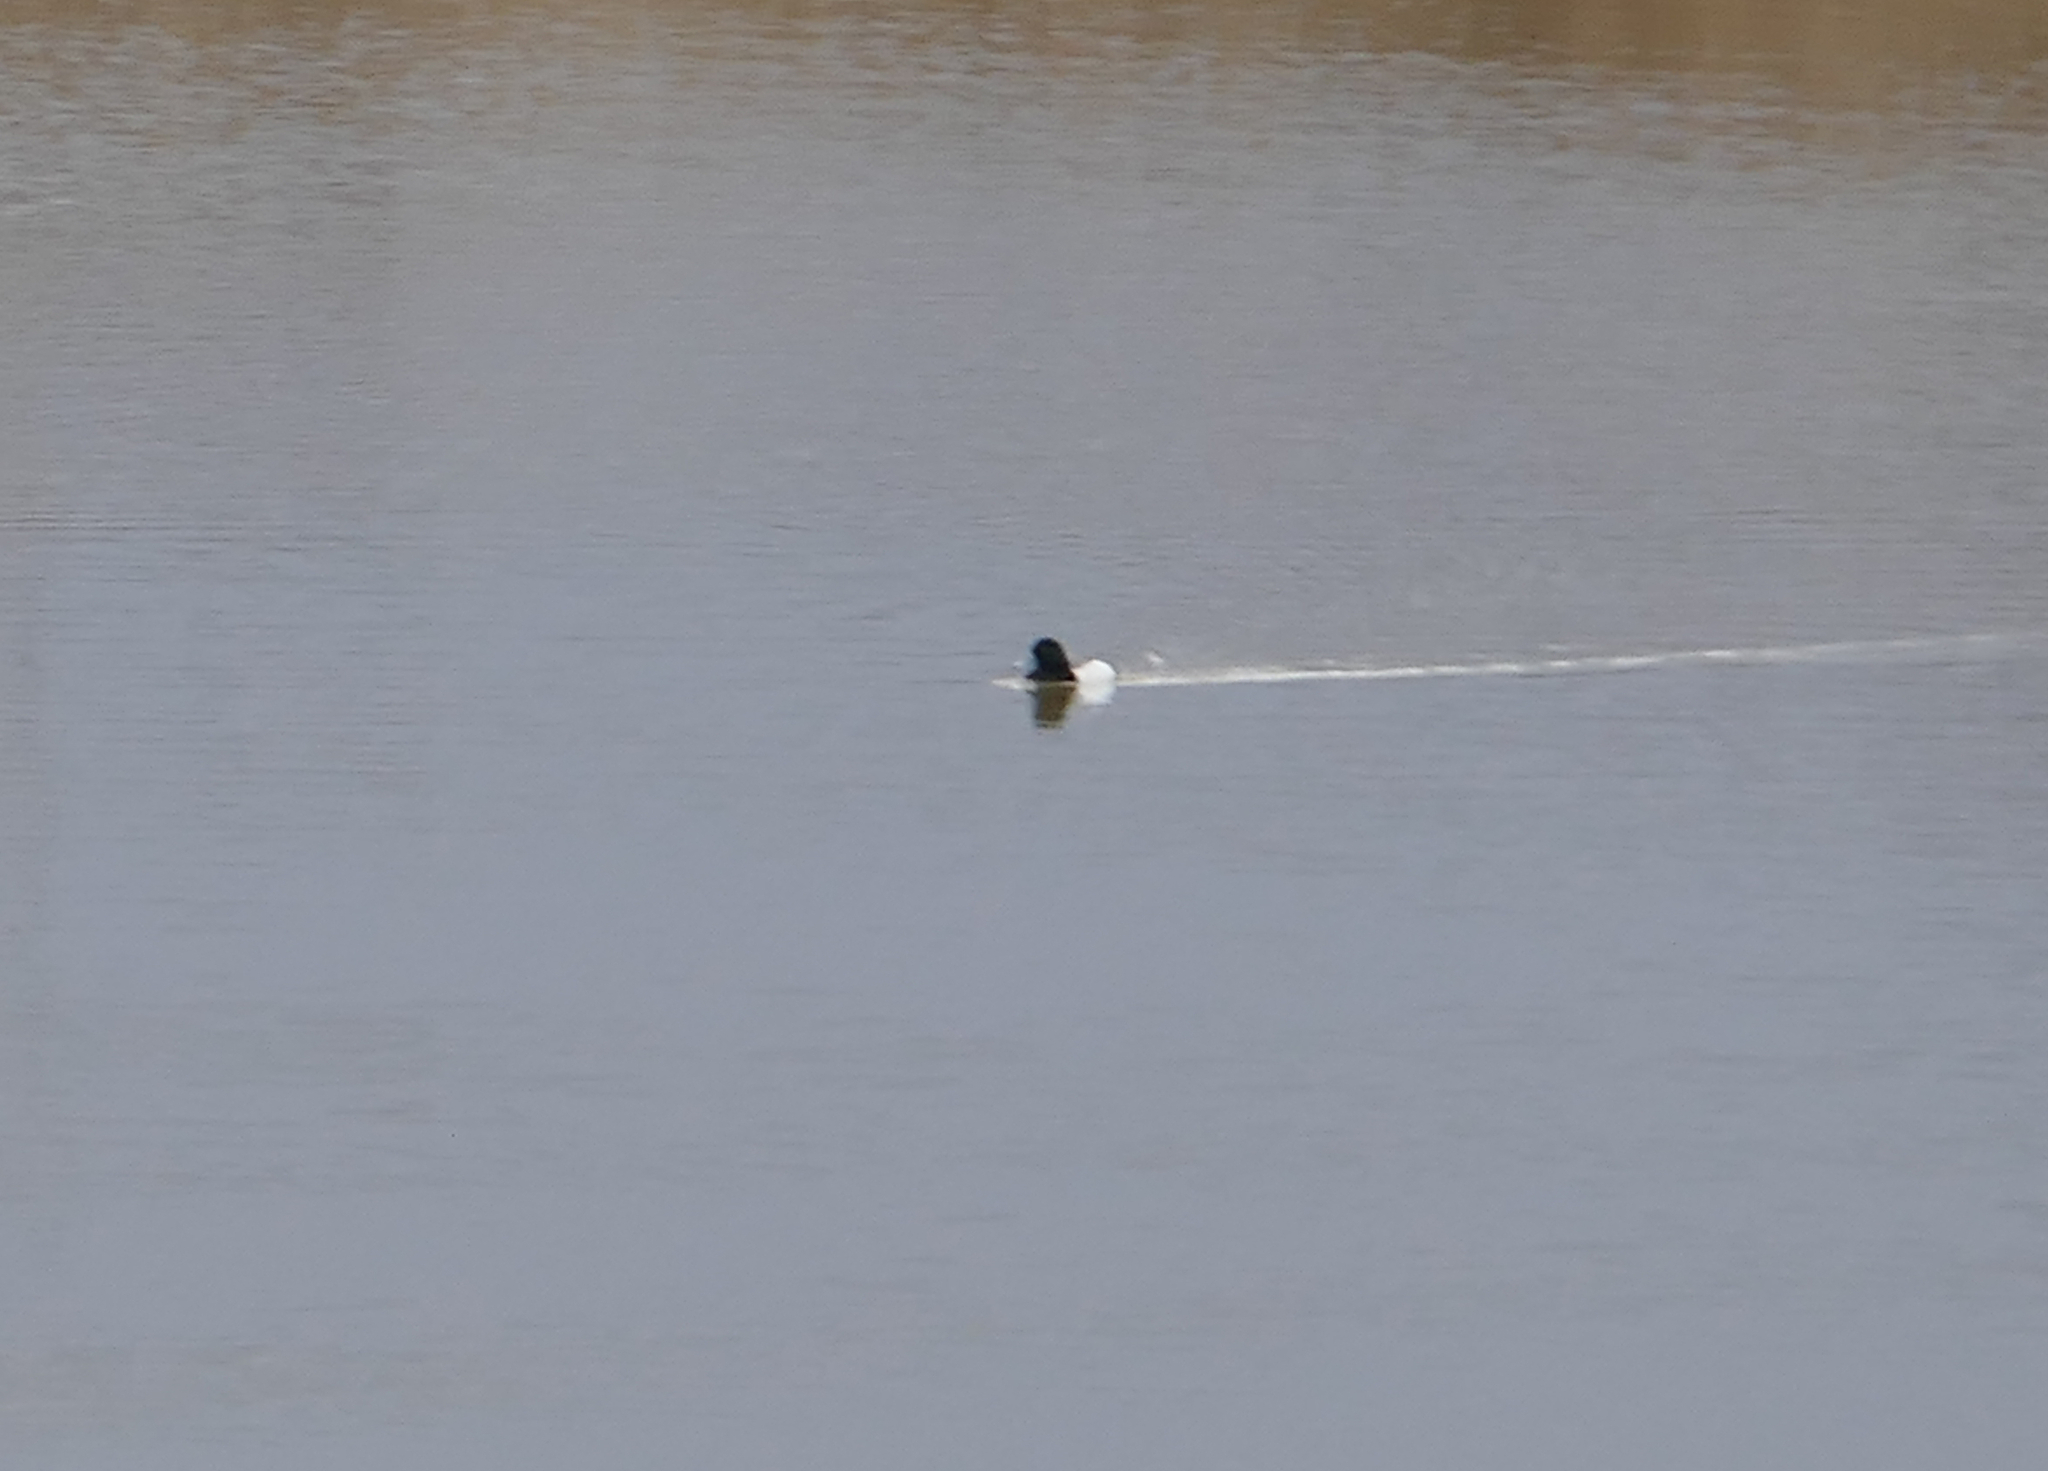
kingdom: Animalia
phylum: Chordata
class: Aves
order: Anseriformes
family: Anatidae
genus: Aythya
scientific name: Aythya marila
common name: Greater scaup
